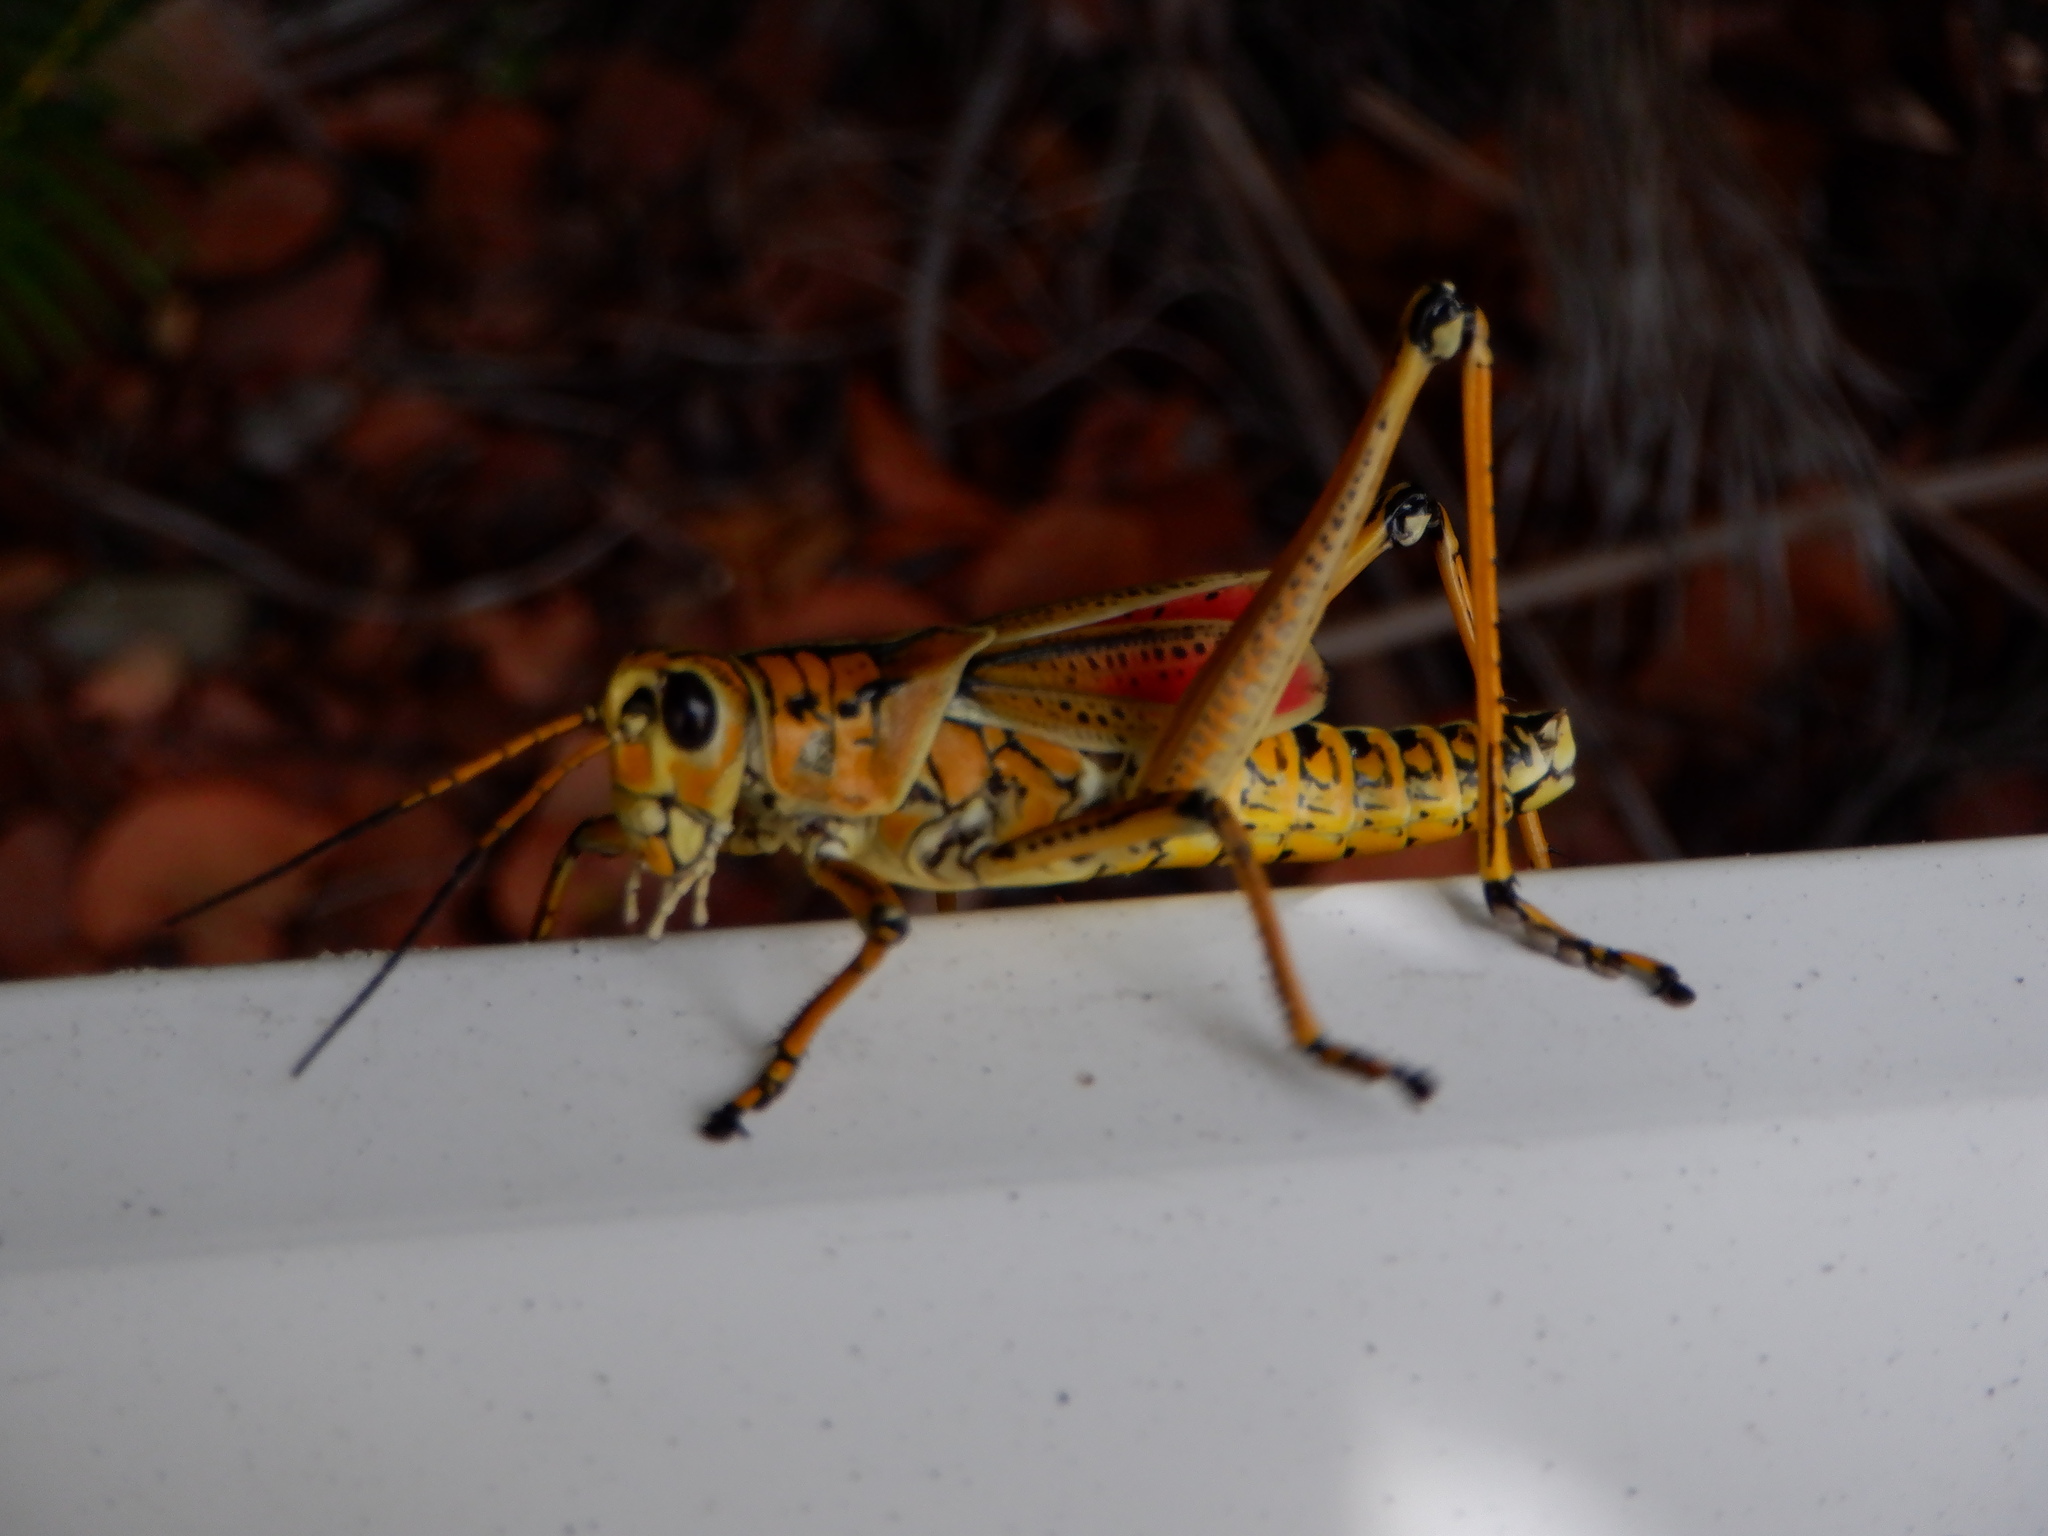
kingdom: Animalia
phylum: Arthropoda
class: Insecta
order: Orthoptera
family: Romaleidae
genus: Romalea
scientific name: Romalea microptera
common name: Eastern lubber grasshopper
